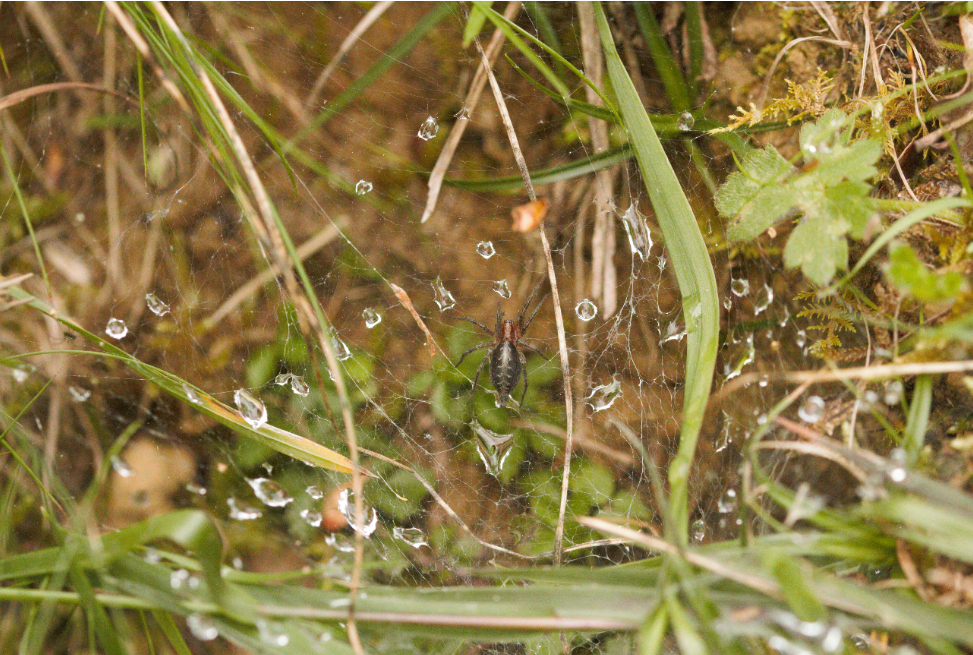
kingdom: Animalia
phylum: Arthropoda
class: Arachnida
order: Araneae
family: Agelenidae
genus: Agelena
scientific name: Agelena labyrinthica
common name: Labyrinth spider
